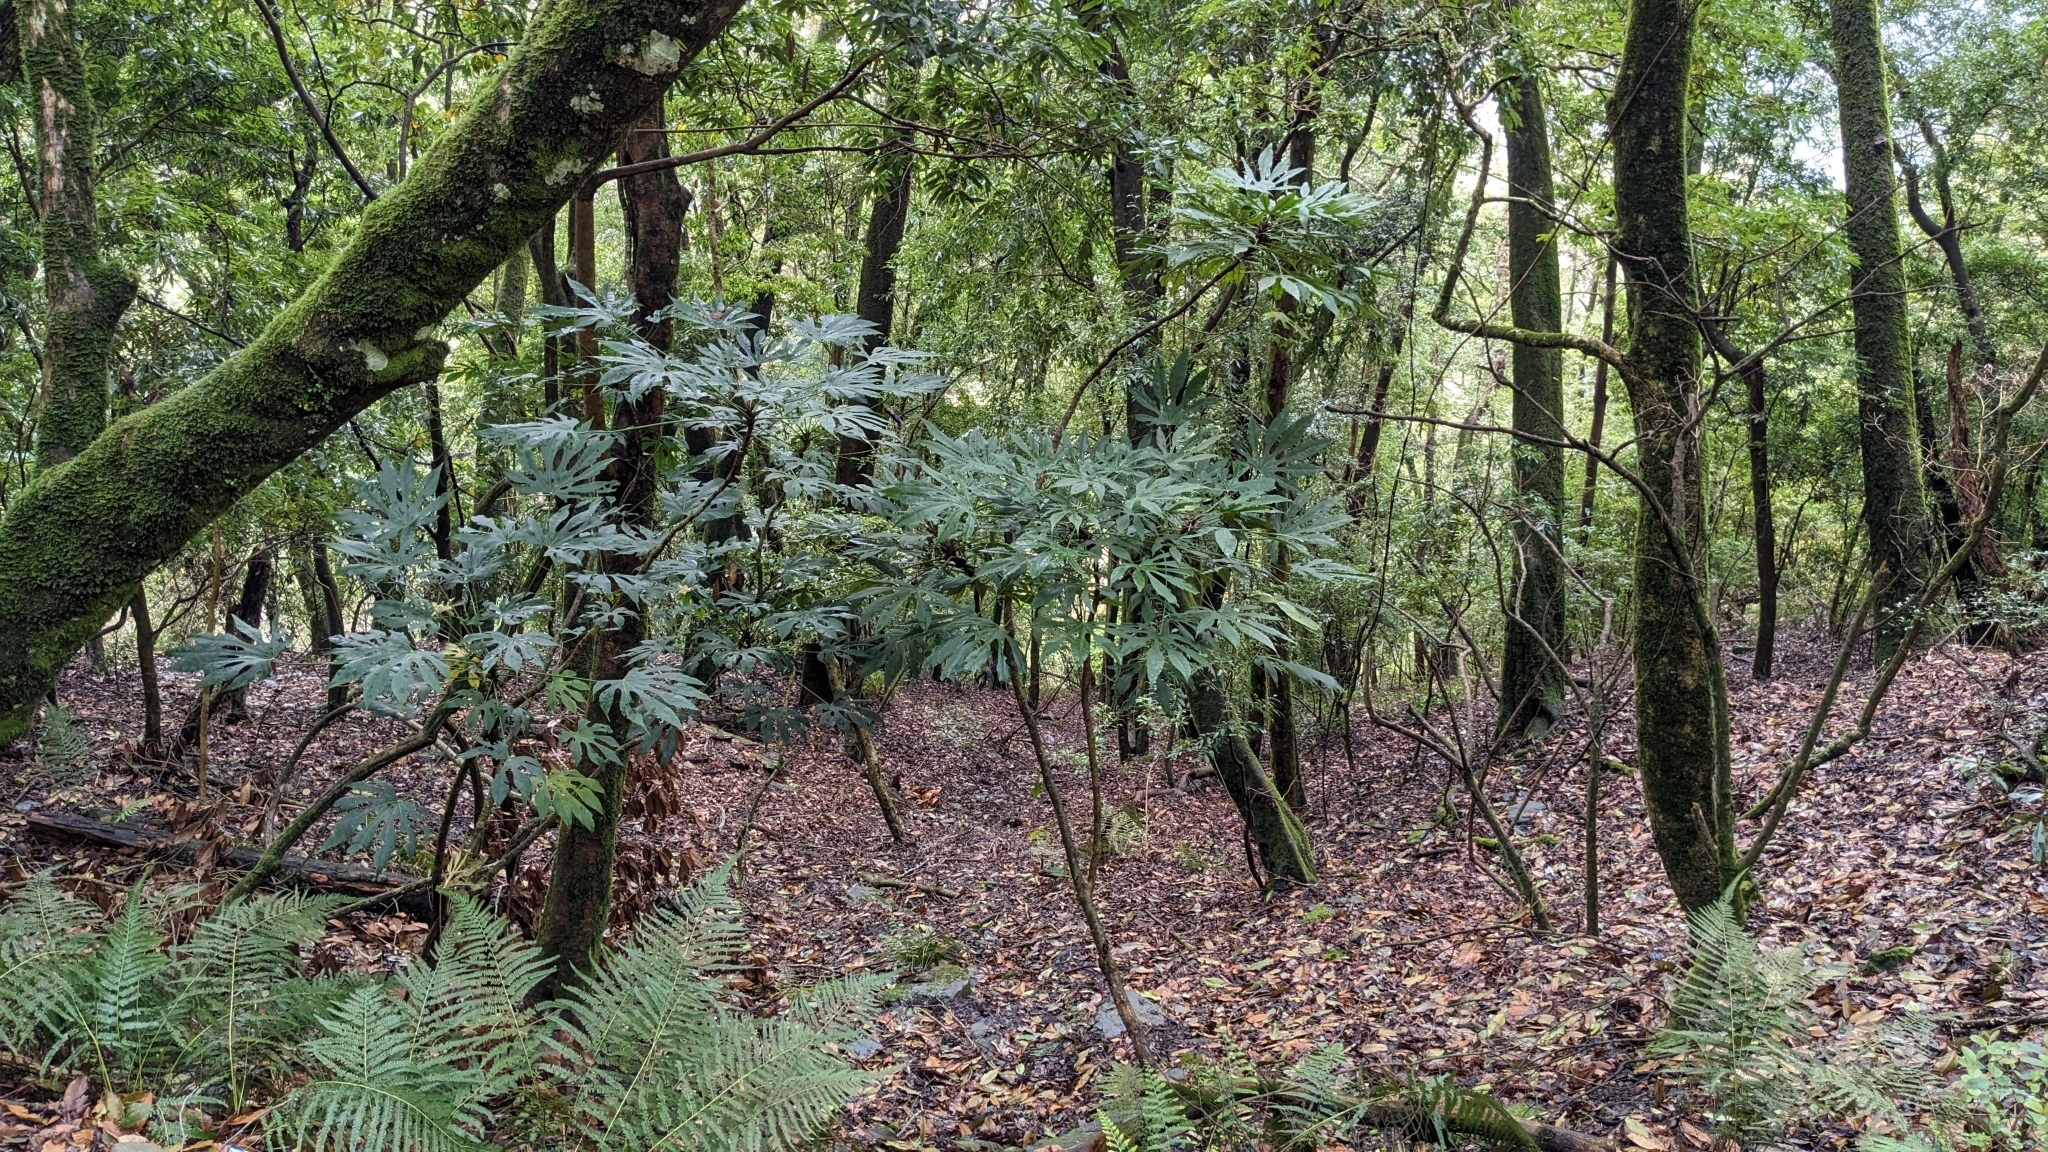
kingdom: Plantae
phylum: Tracheophyta
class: Magnoliopsida
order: Apiales
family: Araliaceae
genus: Fatsia
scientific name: Fatsia polycarpa
